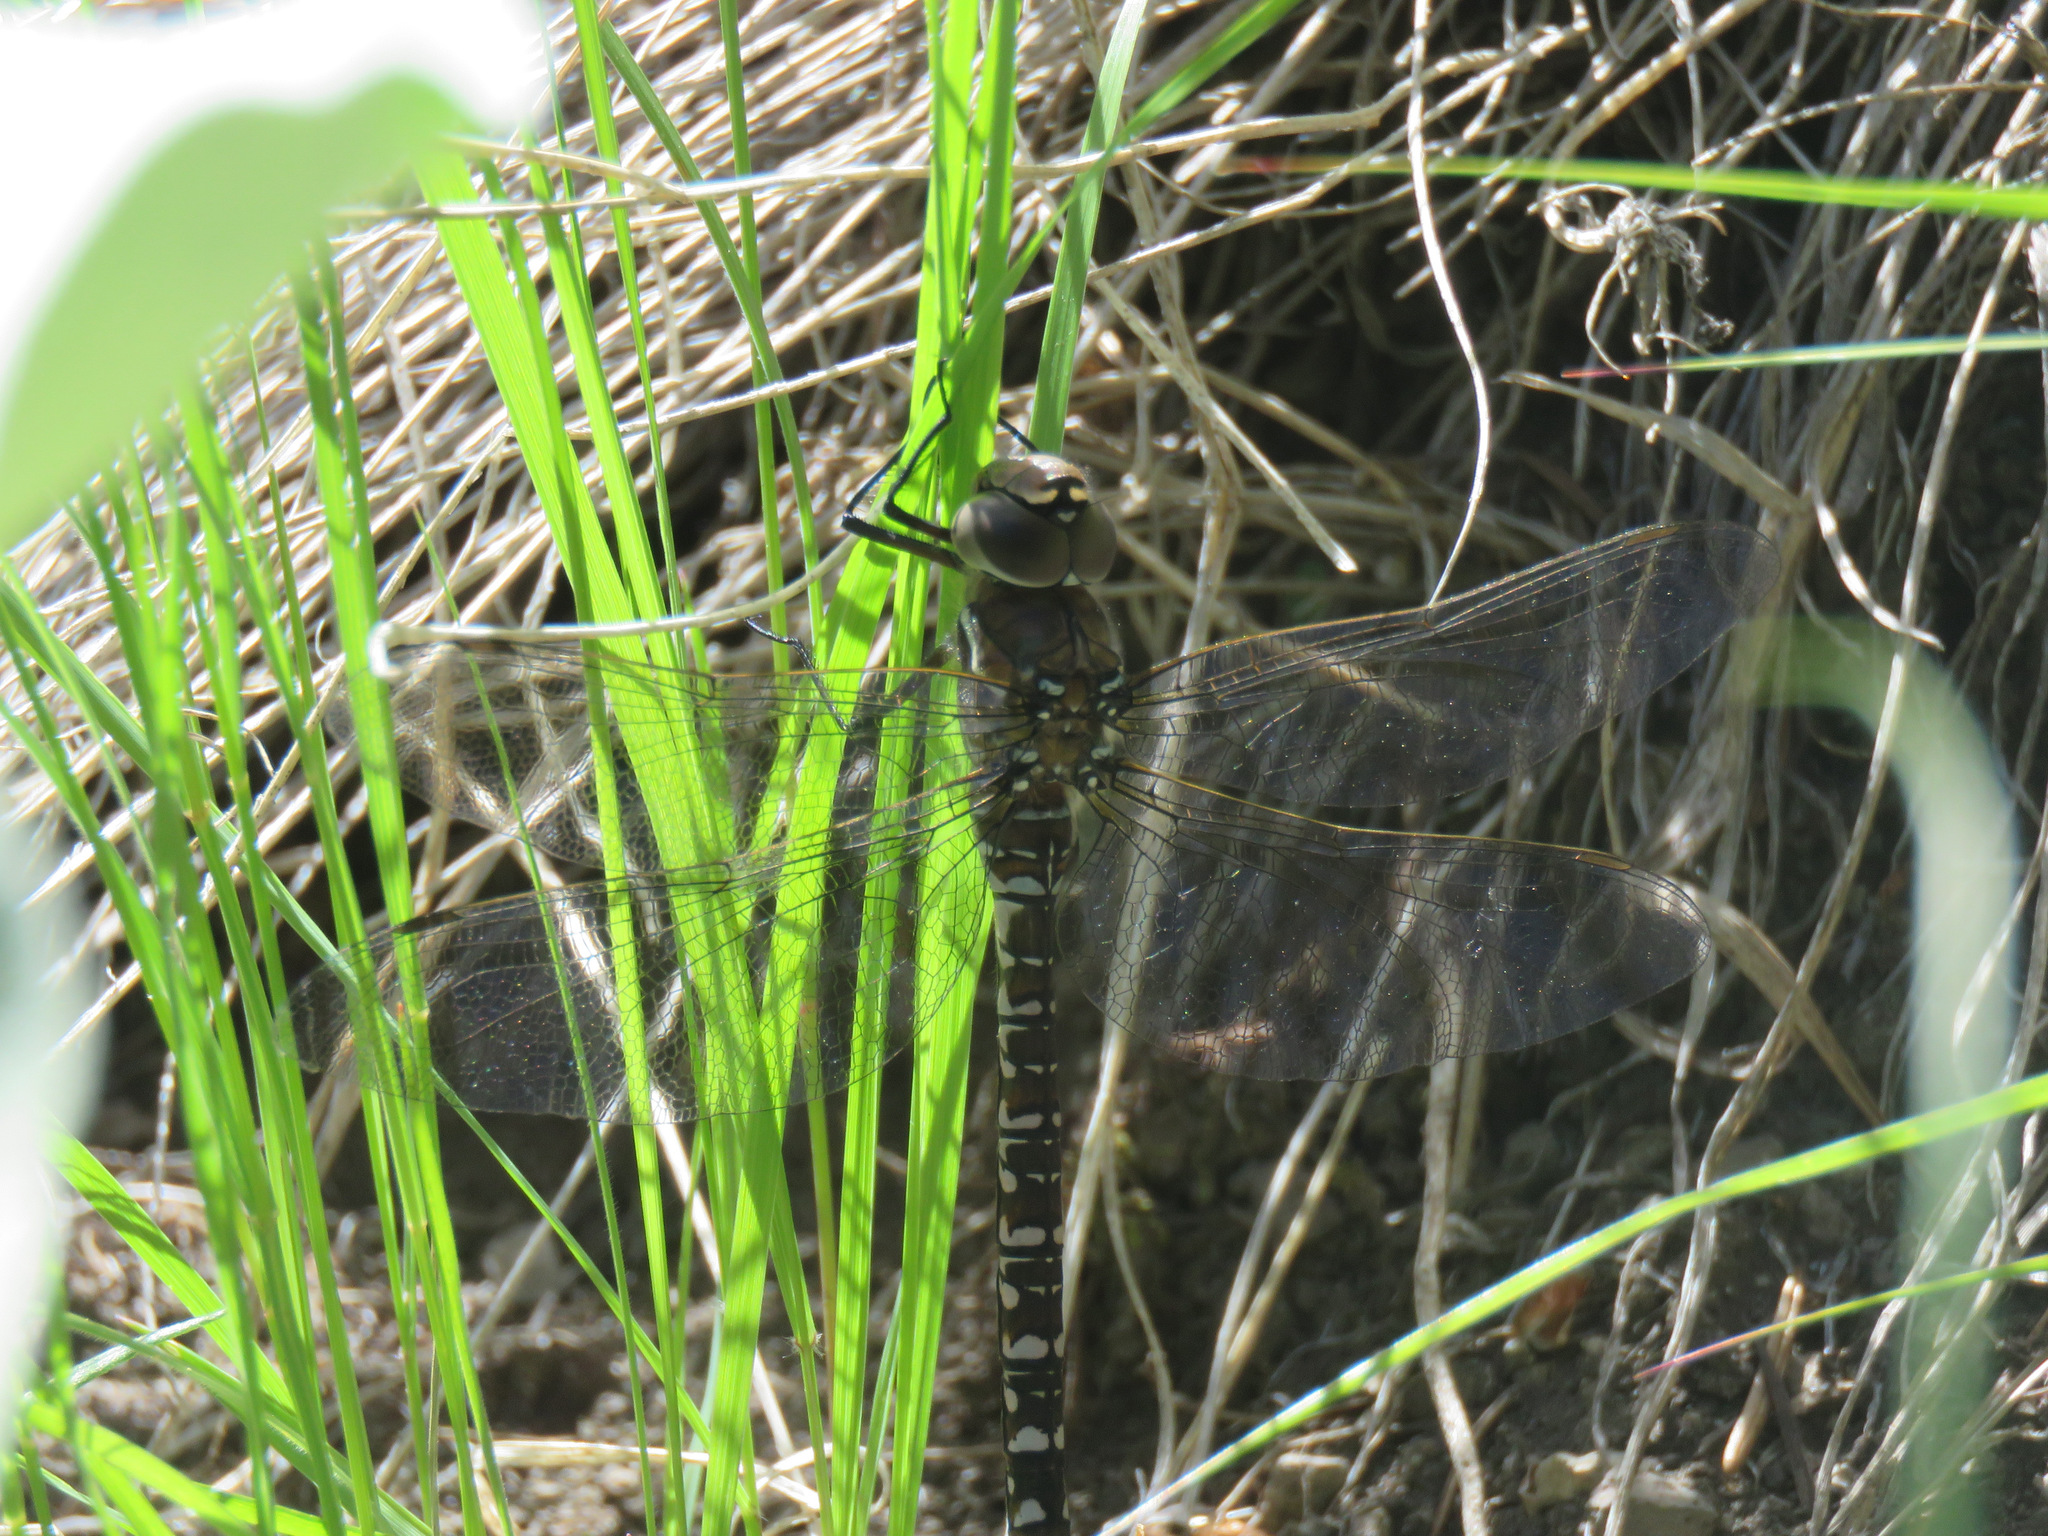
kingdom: Animalia
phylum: Arthropoda
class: Insecta
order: Odonata
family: Aeshnidae
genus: Aeshna
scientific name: Aeshna interrupta
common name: Variable darner
